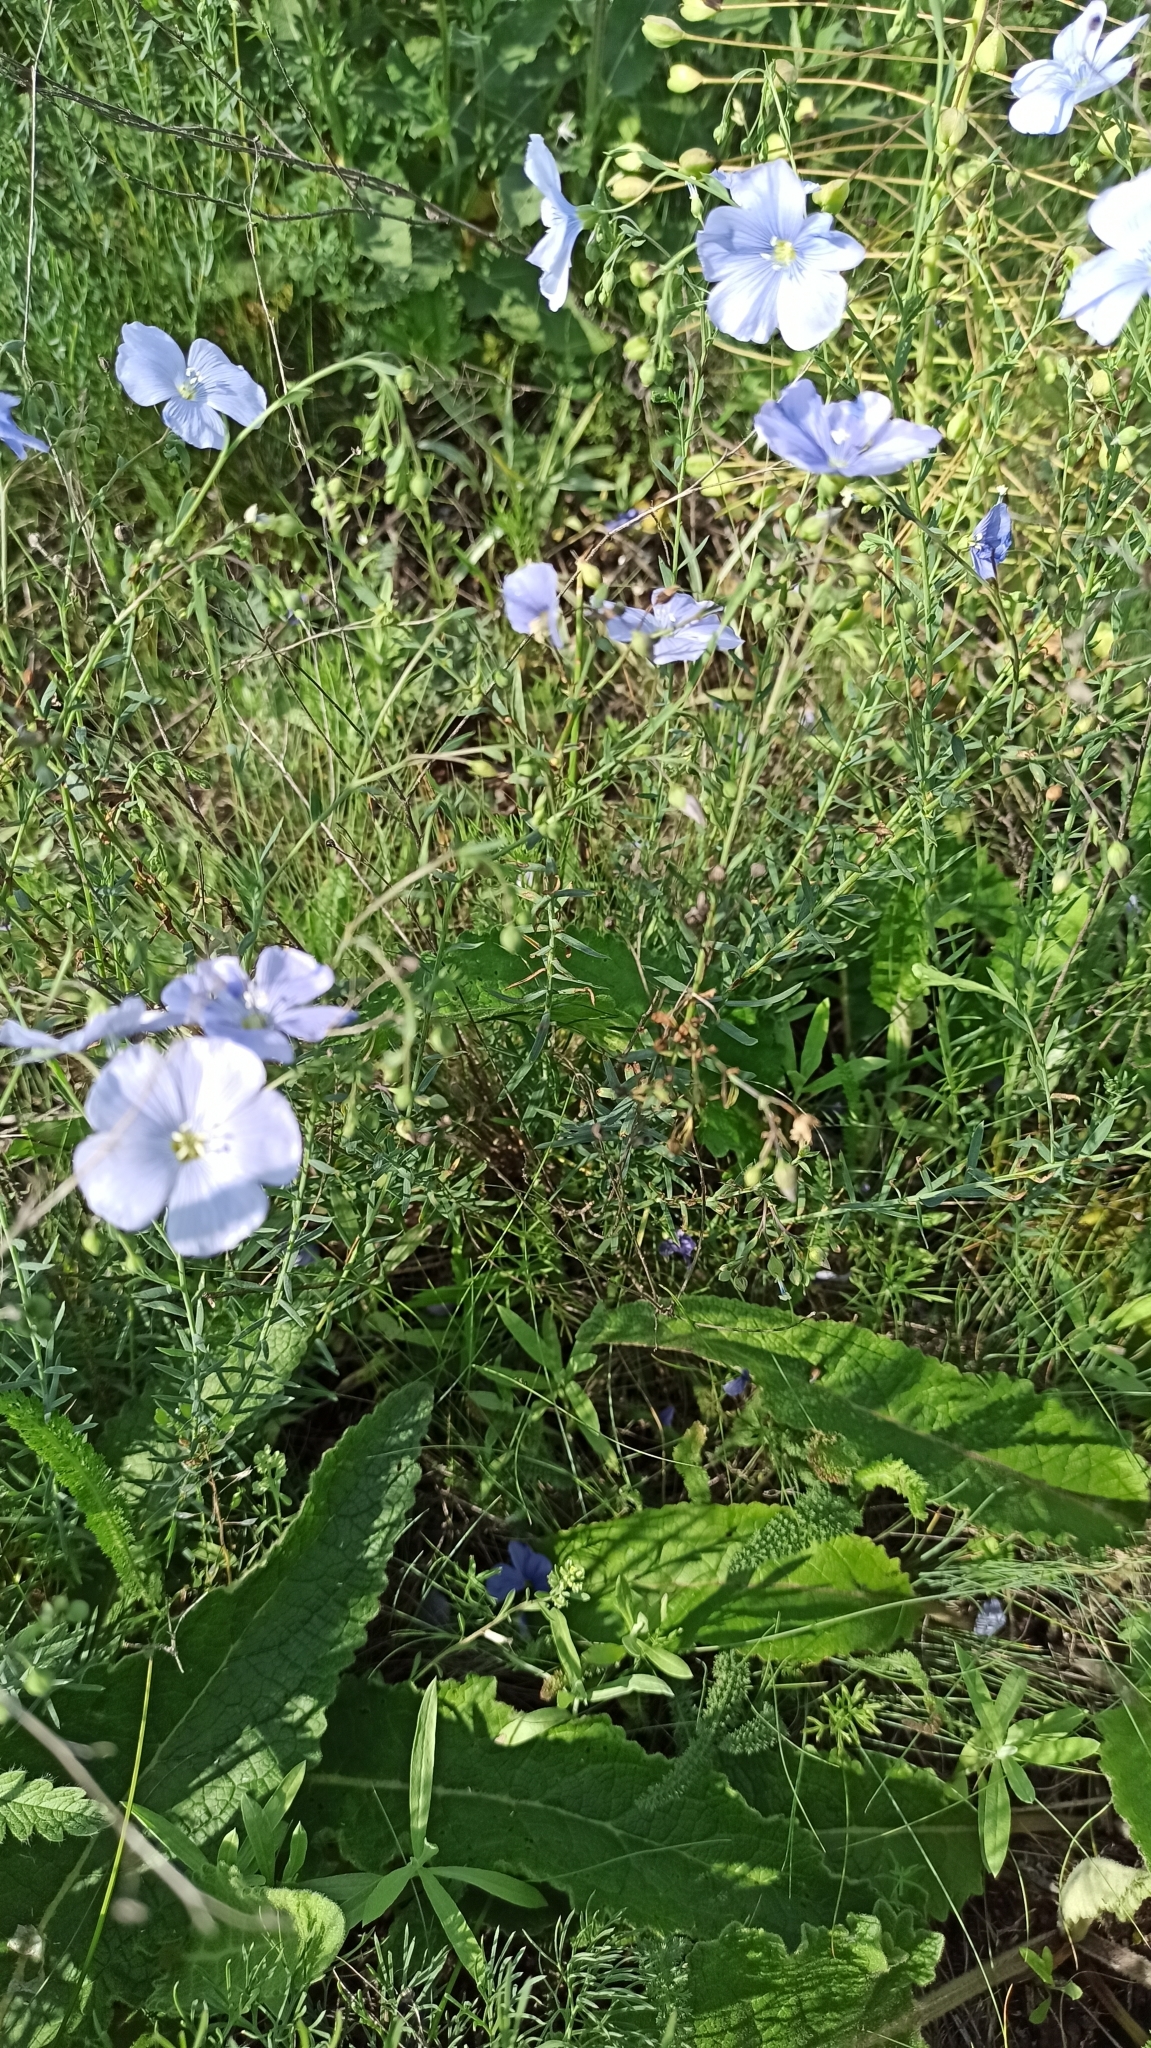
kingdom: Plantae
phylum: Tracheophyta
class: Magnoliopsida
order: Malpighiales
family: Linaceae
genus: Linum
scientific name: Linum austriacum
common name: Austrian flax
